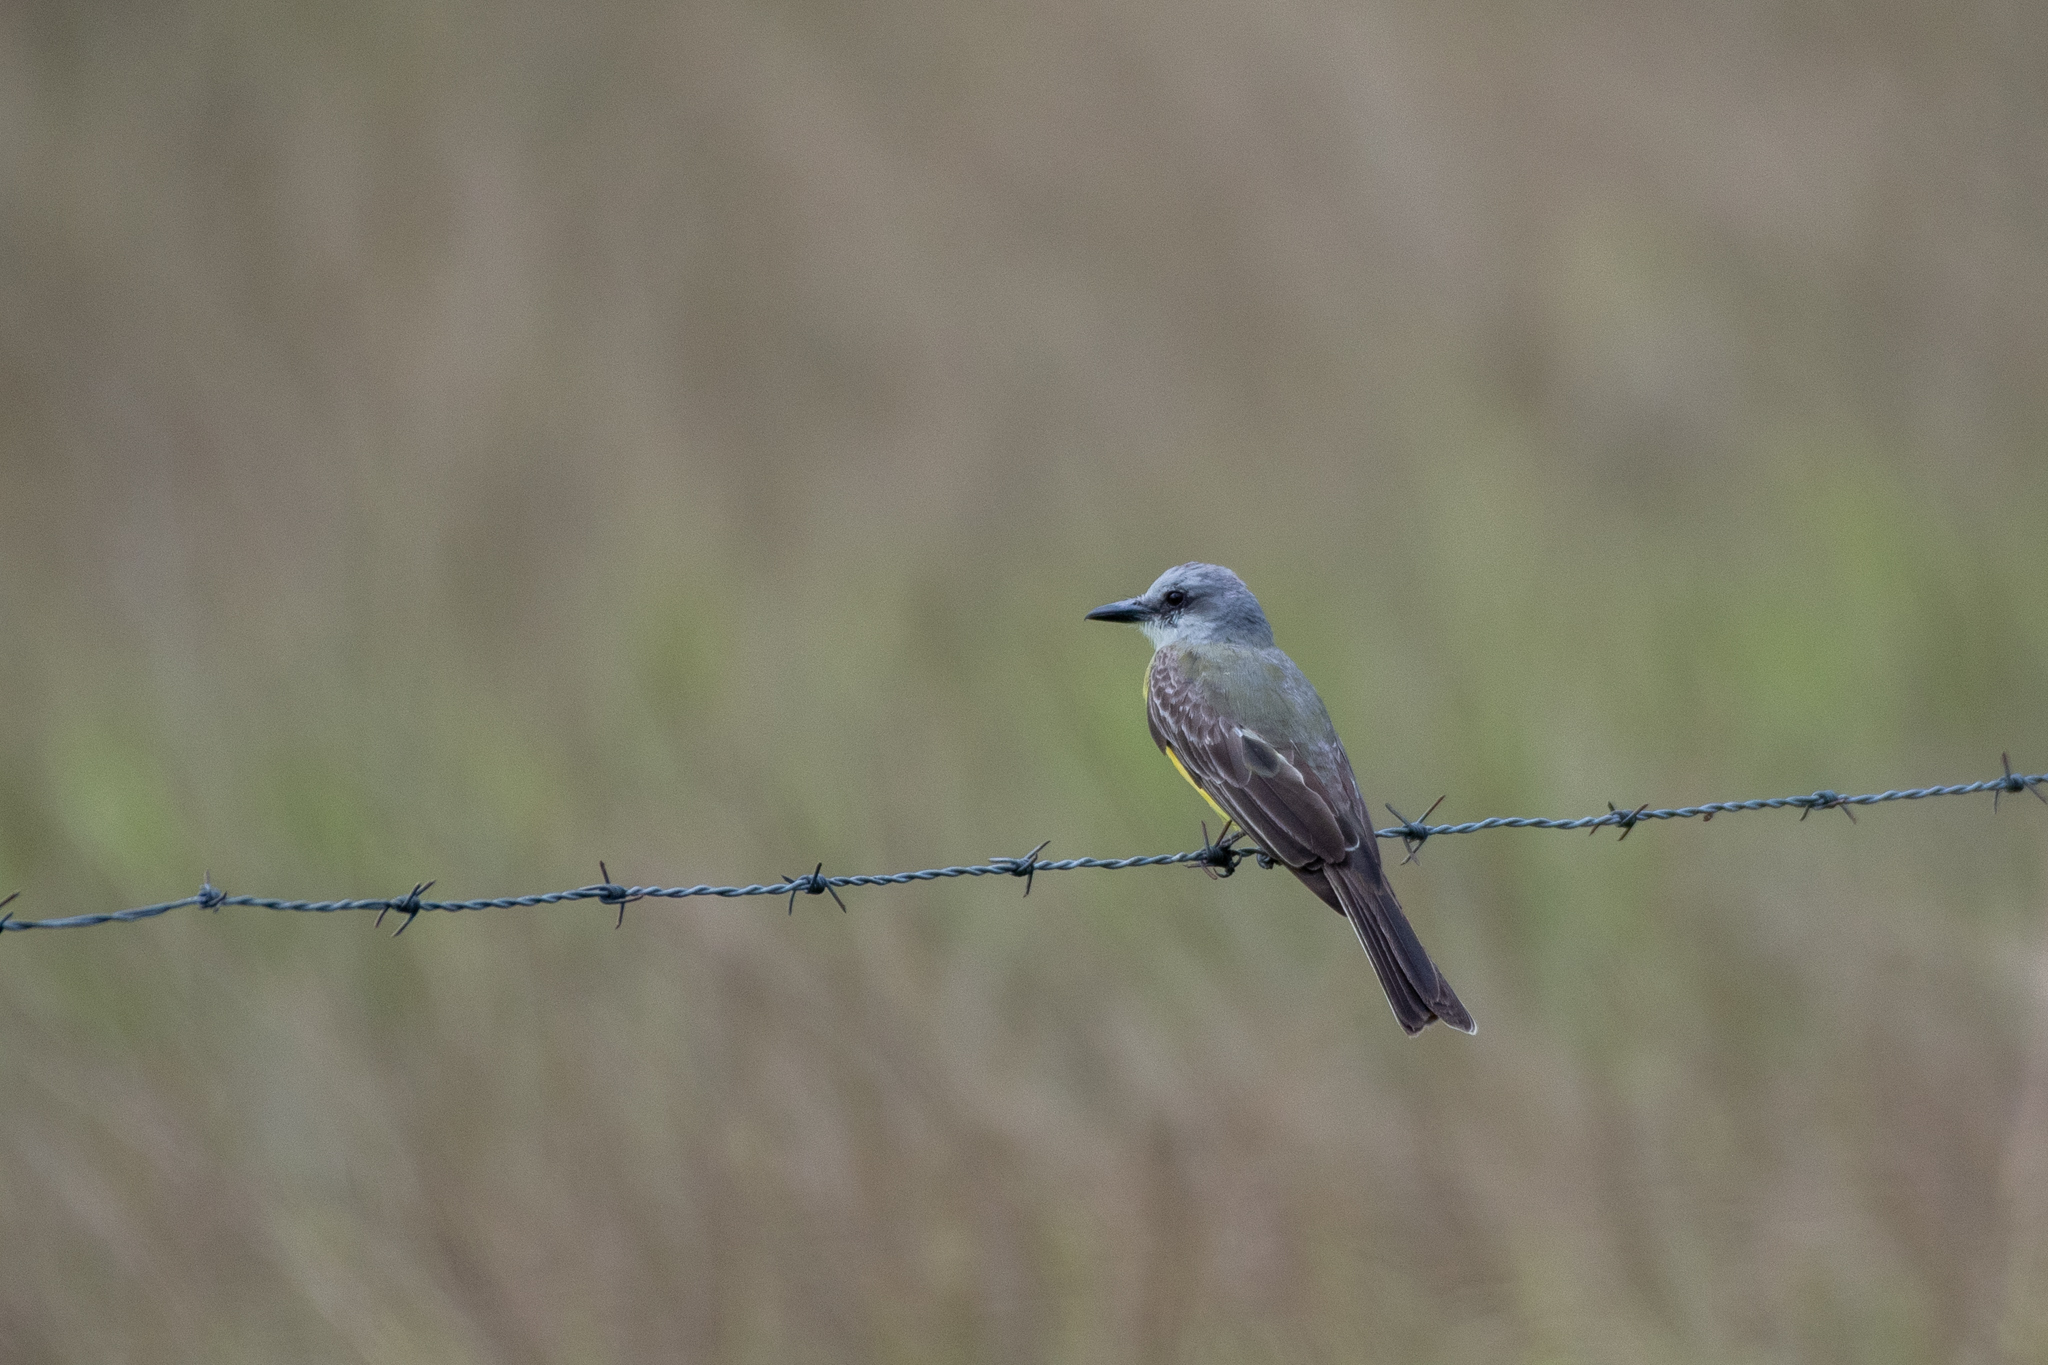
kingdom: Animalia
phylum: Chordata
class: Aves
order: Passeriformes
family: Tyrannidae
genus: Tyrannus
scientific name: Tyrannus melancholicus
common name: Tropical kingbird
